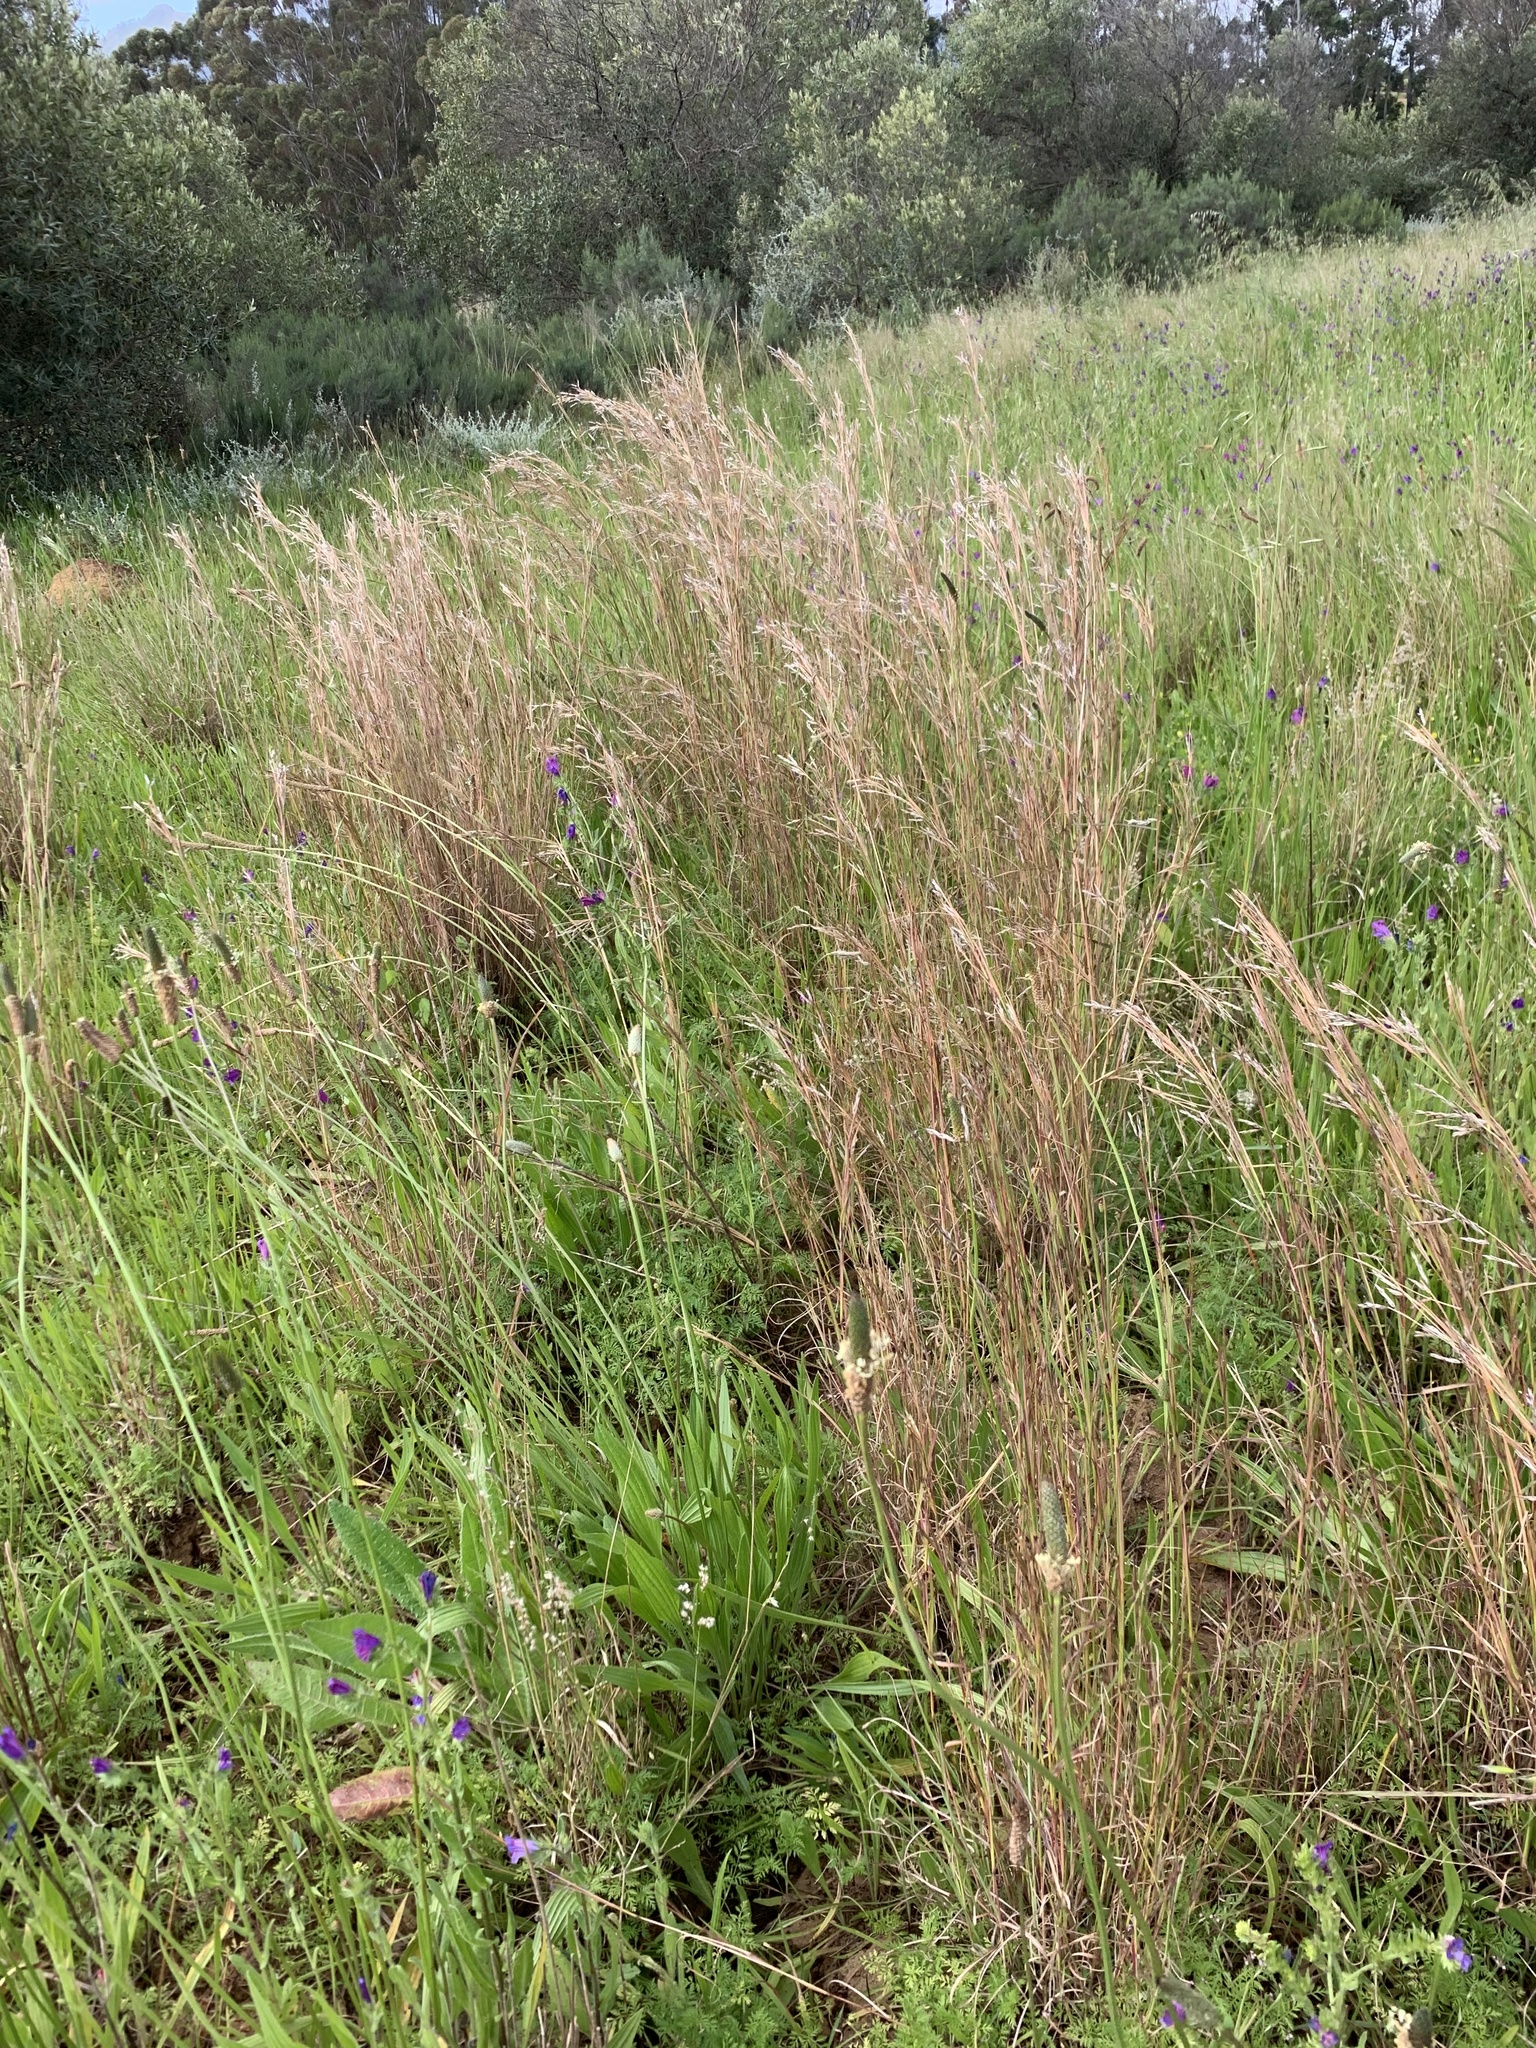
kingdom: Plantae
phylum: Tracheophyta
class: Liliopsida
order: Poales
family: Poaceae
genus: Hyparrhenia
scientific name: Hyparrhenia hirta
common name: Thatching grass
